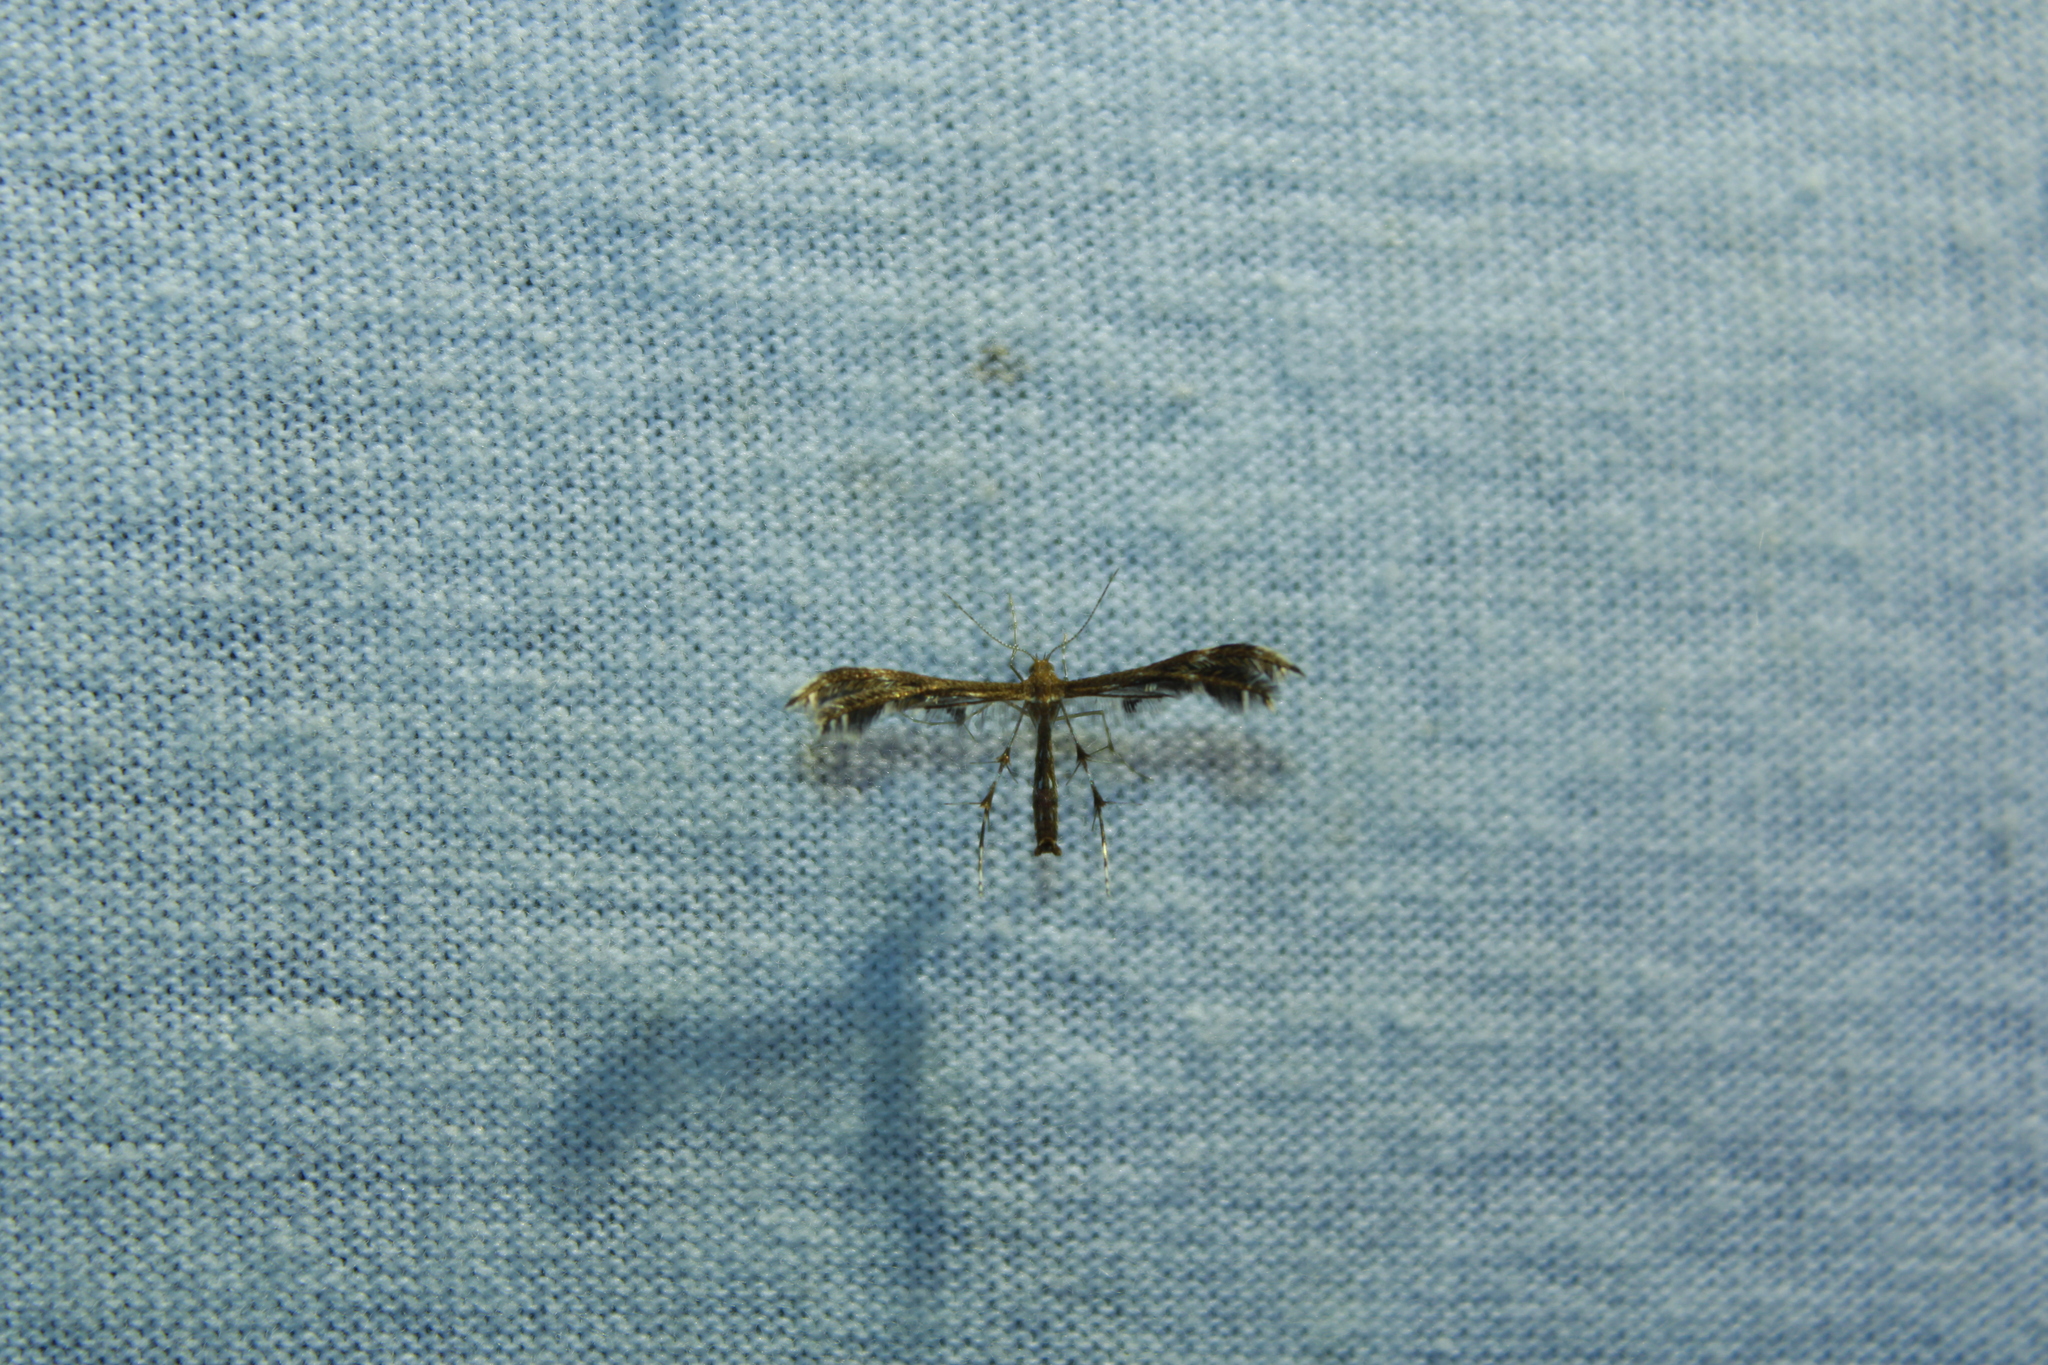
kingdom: Animalia
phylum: Arthropoda
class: Insecta
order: Lepidoptera
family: Pterophoridae
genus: Dejongia
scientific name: Dejongia lobidactylus
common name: Lobed plume moth
